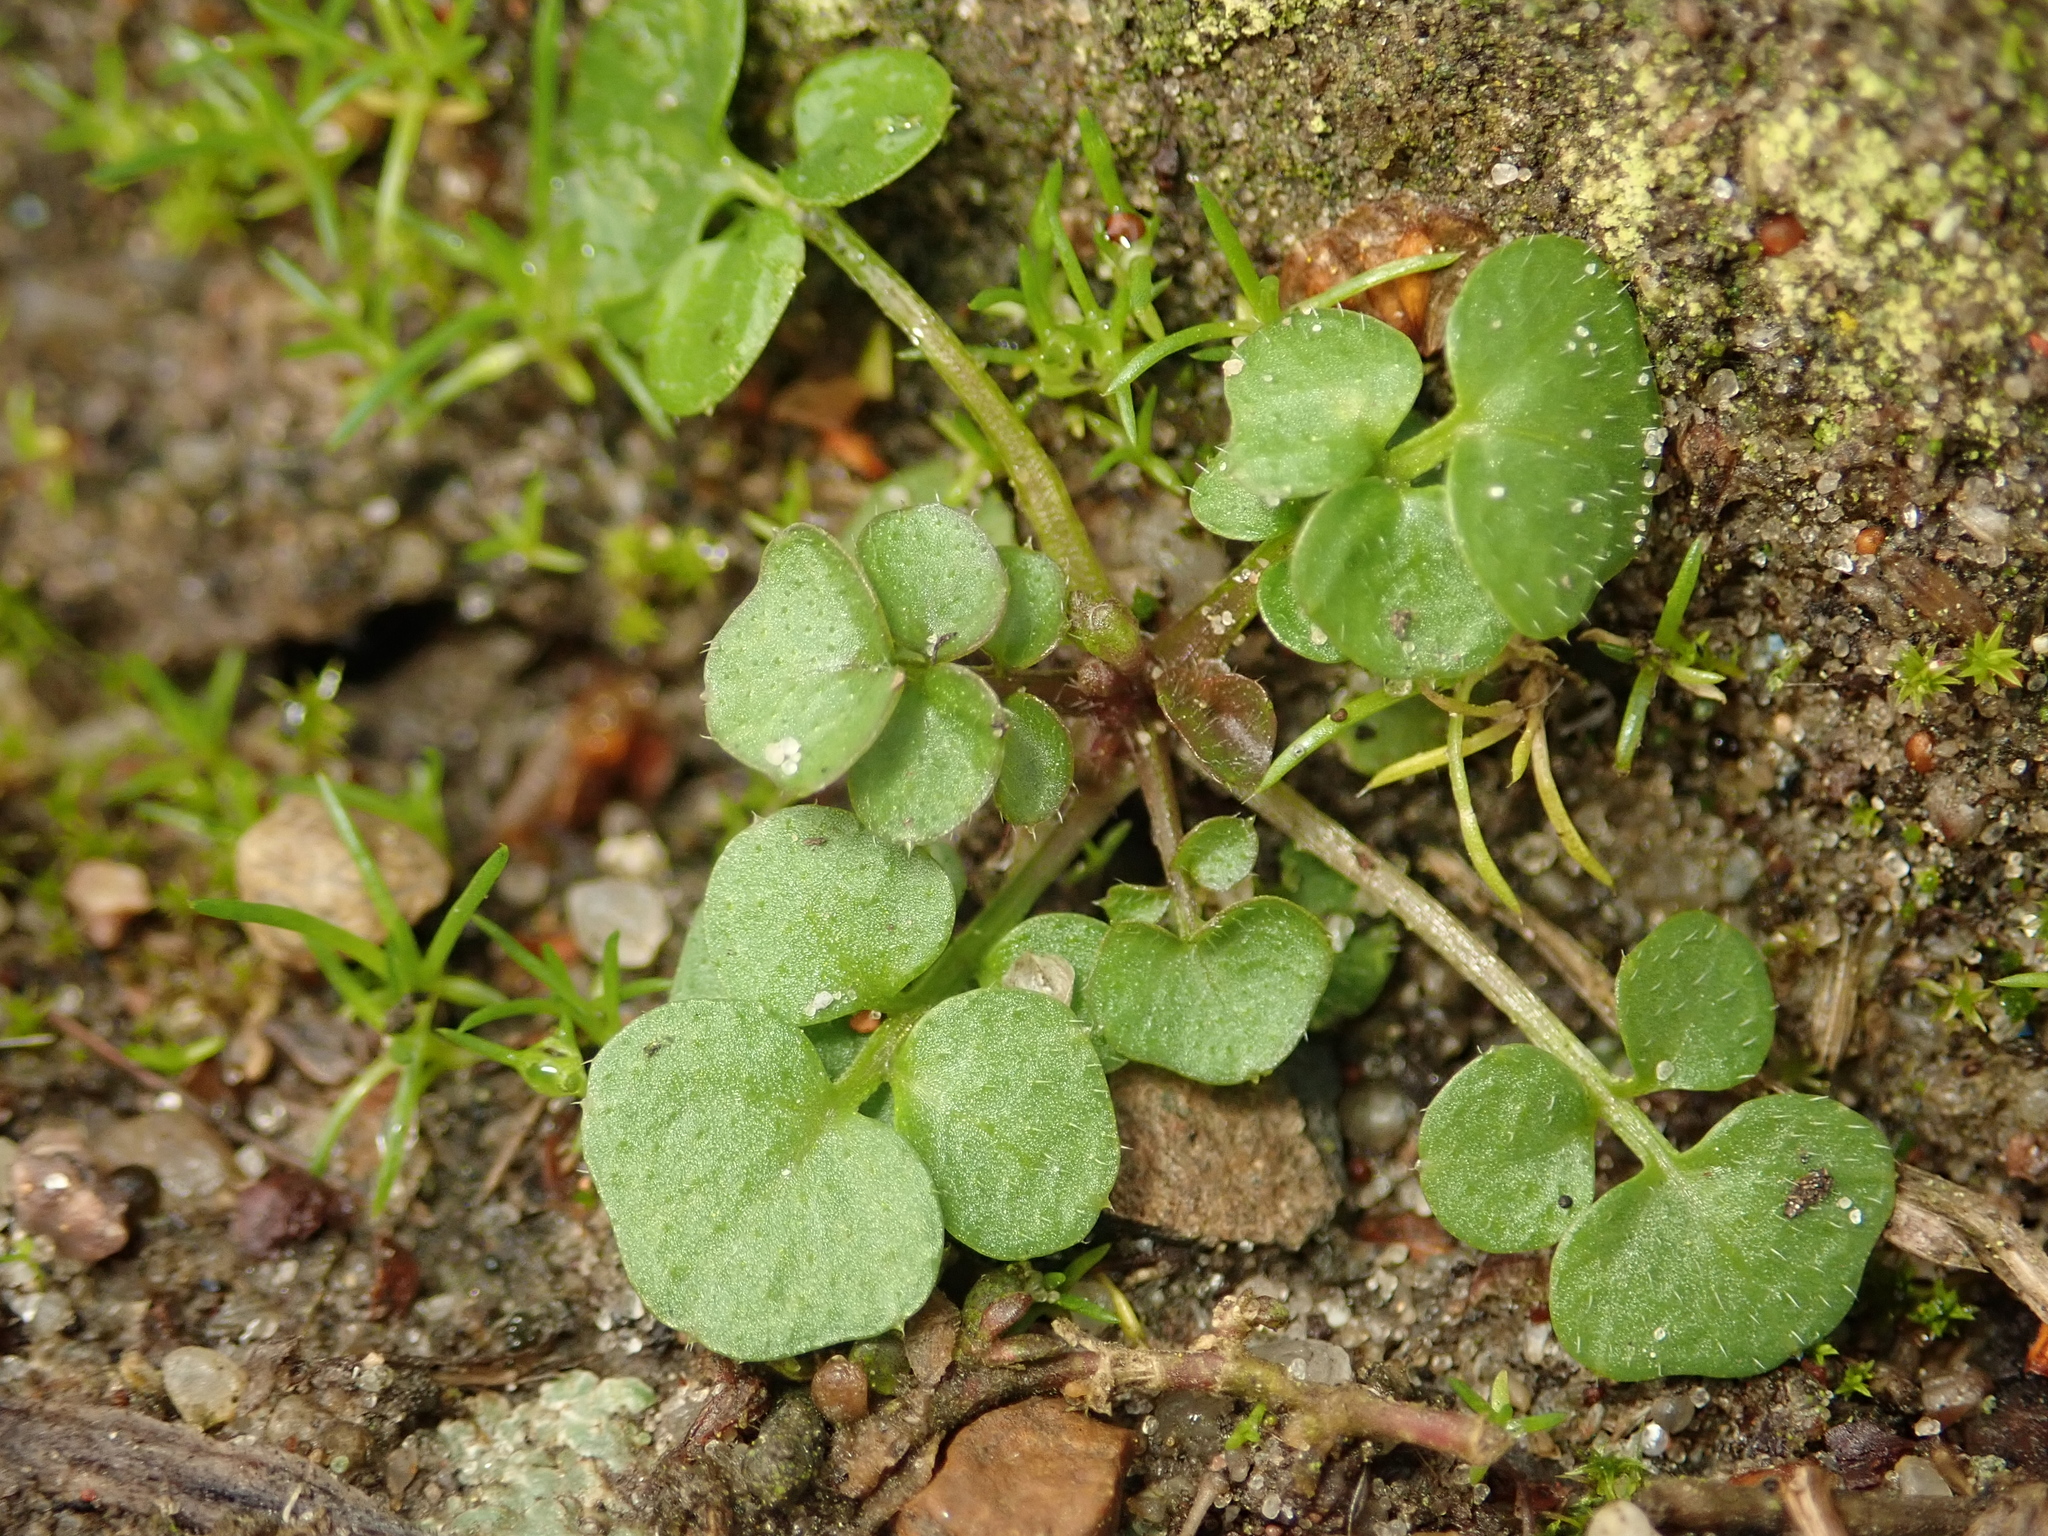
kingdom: Plantae
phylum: Tracheophyta
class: Magnoliopsida
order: Brassicales
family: Brassicaceae
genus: Cardamine
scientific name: Cardamine hirsuta
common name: Hairy bittercress
